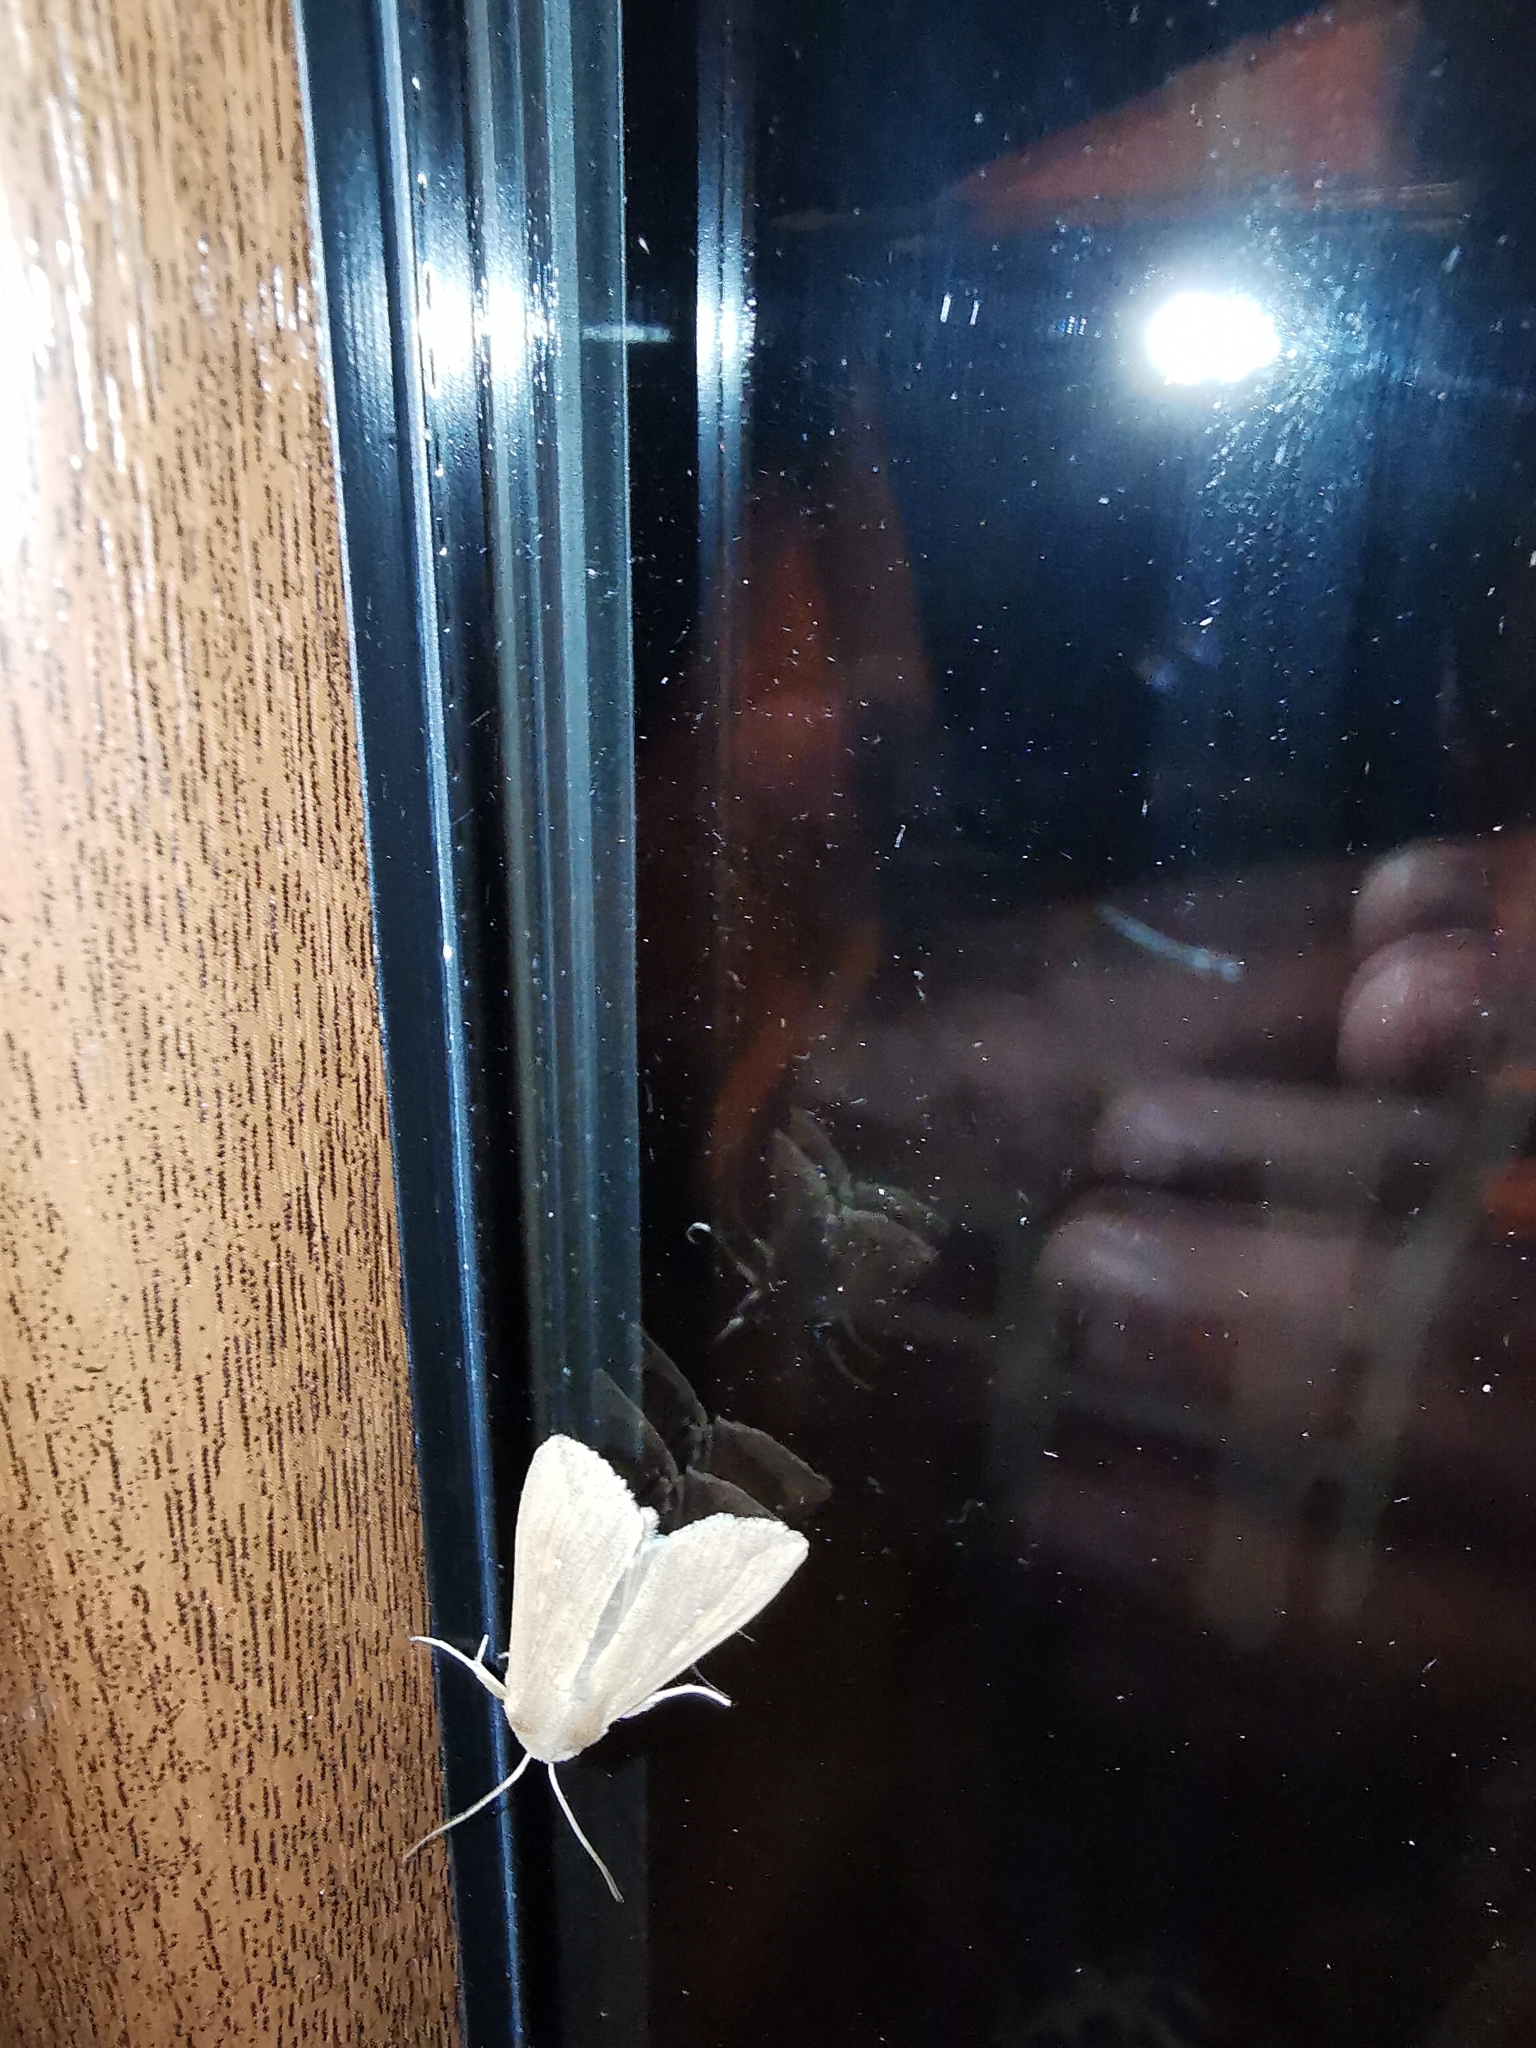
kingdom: Animalia
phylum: Arthropoda
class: Insecta
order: Lepidoptera
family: Noctuidae
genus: Mythimna
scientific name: Mythimna unipuncta
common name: White-speck
